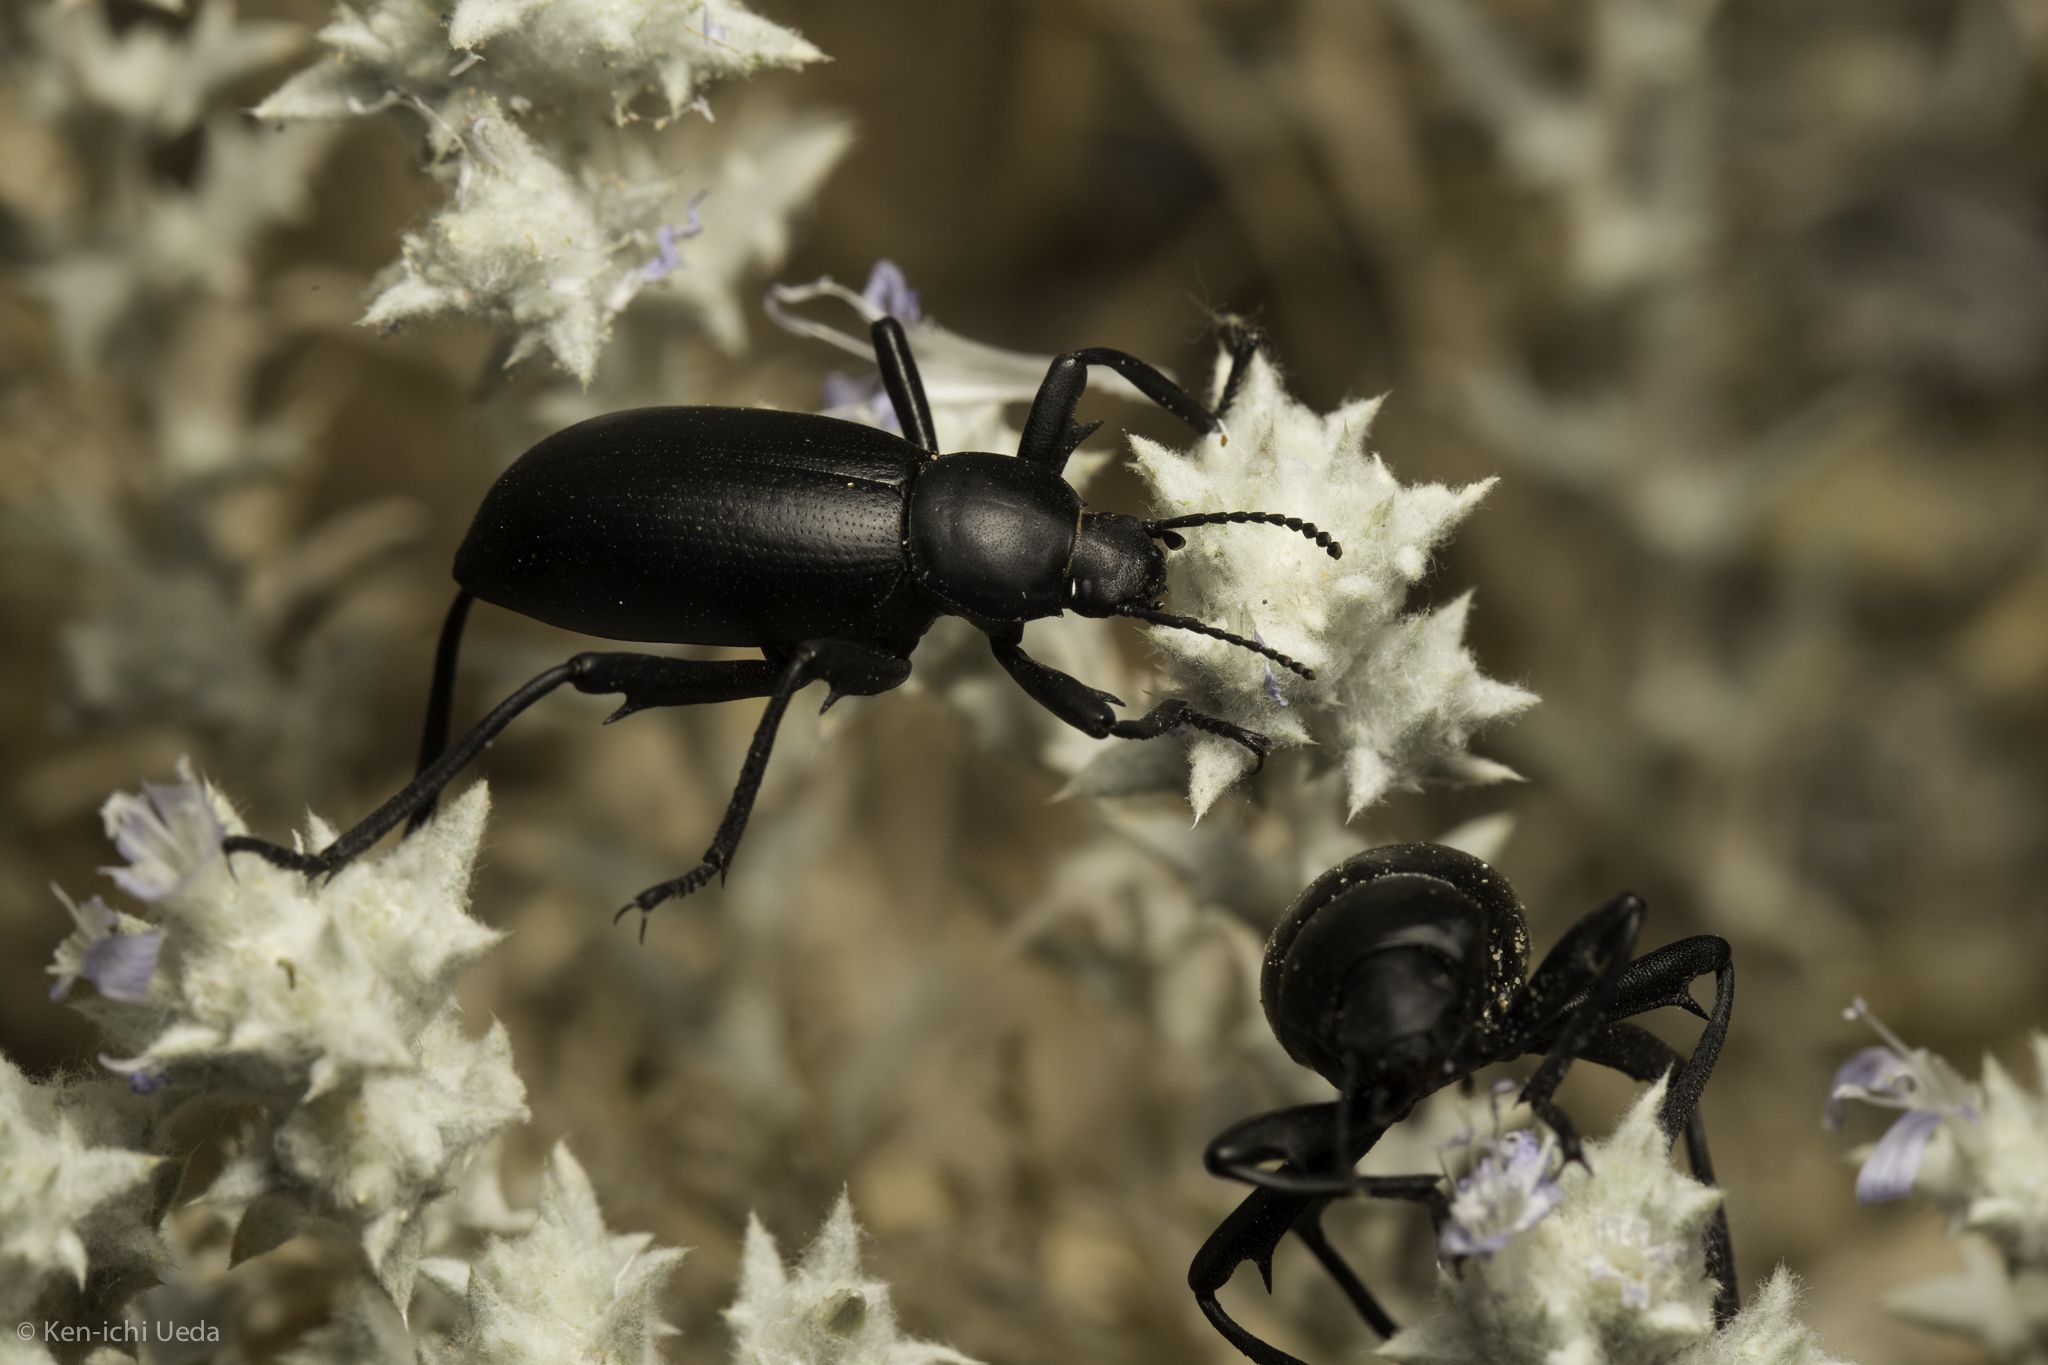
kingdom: Animalia
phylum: Arthropoda
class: Insecta
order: Coleoptera
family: Tenebrionidae
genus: Eleodes
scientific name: Eleodes armata
